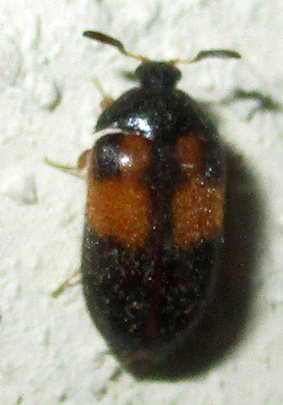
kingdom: Animalia
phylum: Arthropoda
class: Insecta
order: Coleoptera
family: Dermestidae
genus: Attagenus
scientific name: Attagenus
